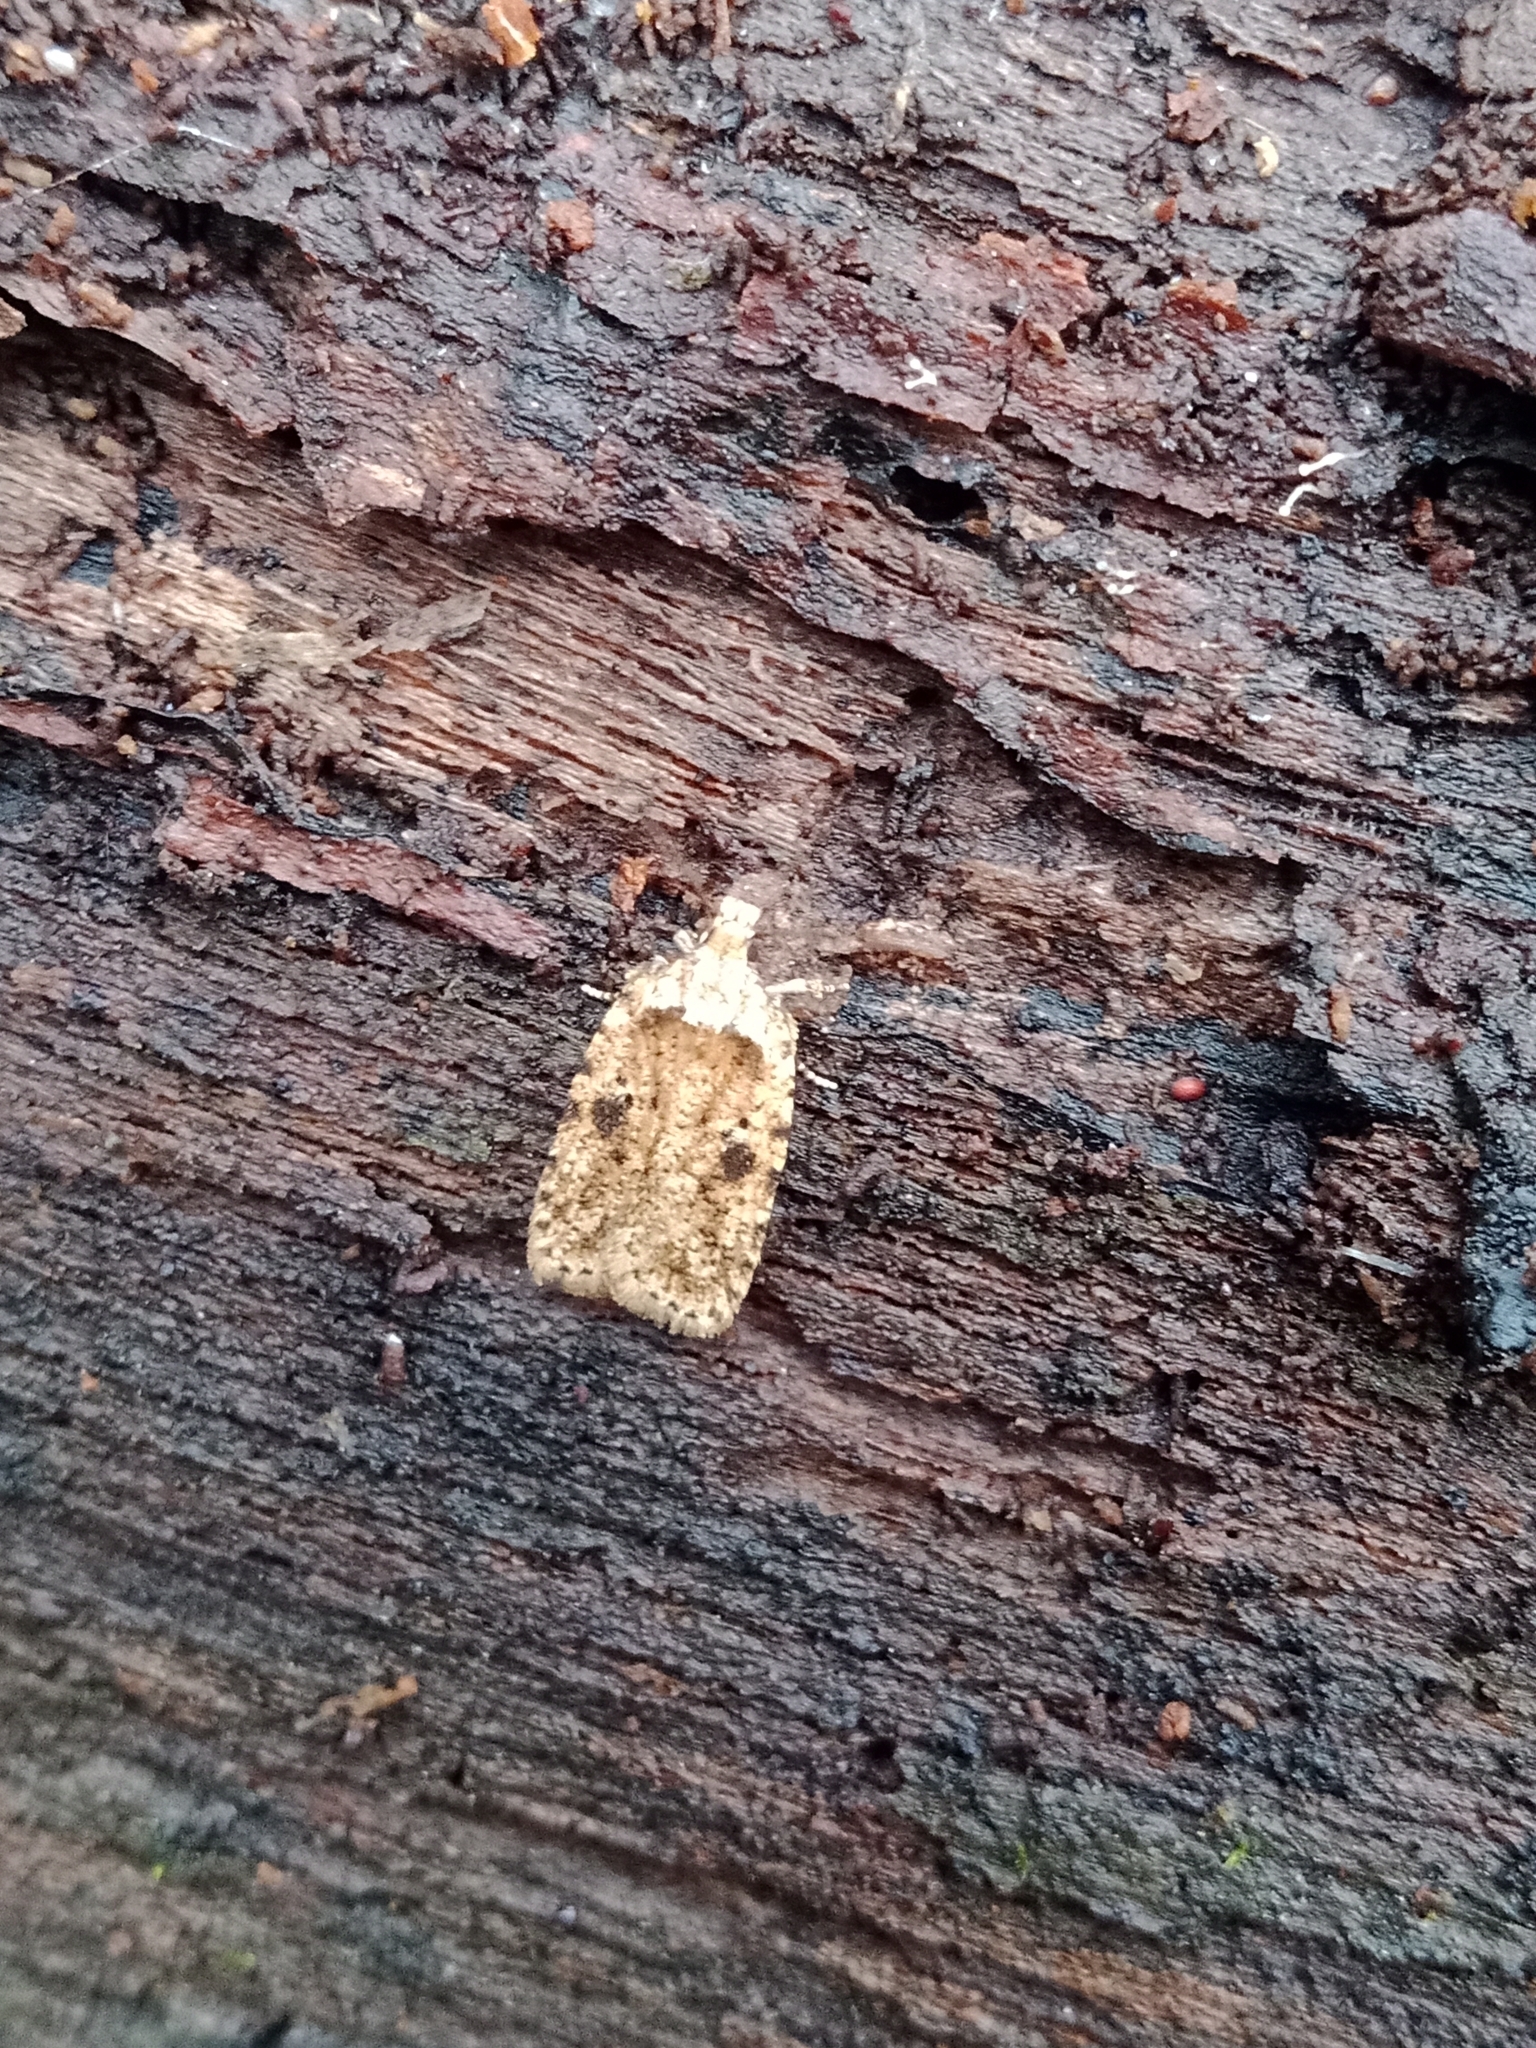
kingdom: Animalia
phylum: Arthropoda
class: Insecta
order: Lepidoptera
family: Depressariidae
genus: Agonopterix
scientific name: Agonopterix arenella
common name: Brindled flat-body
